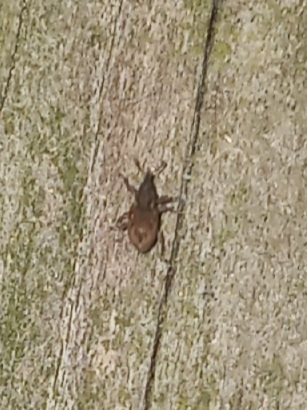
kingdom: Animalia
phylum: Arthropoda
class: Insecta
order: Coleoptera
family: Brachyceridae
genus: Endalus
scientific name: Endalus aeratus
